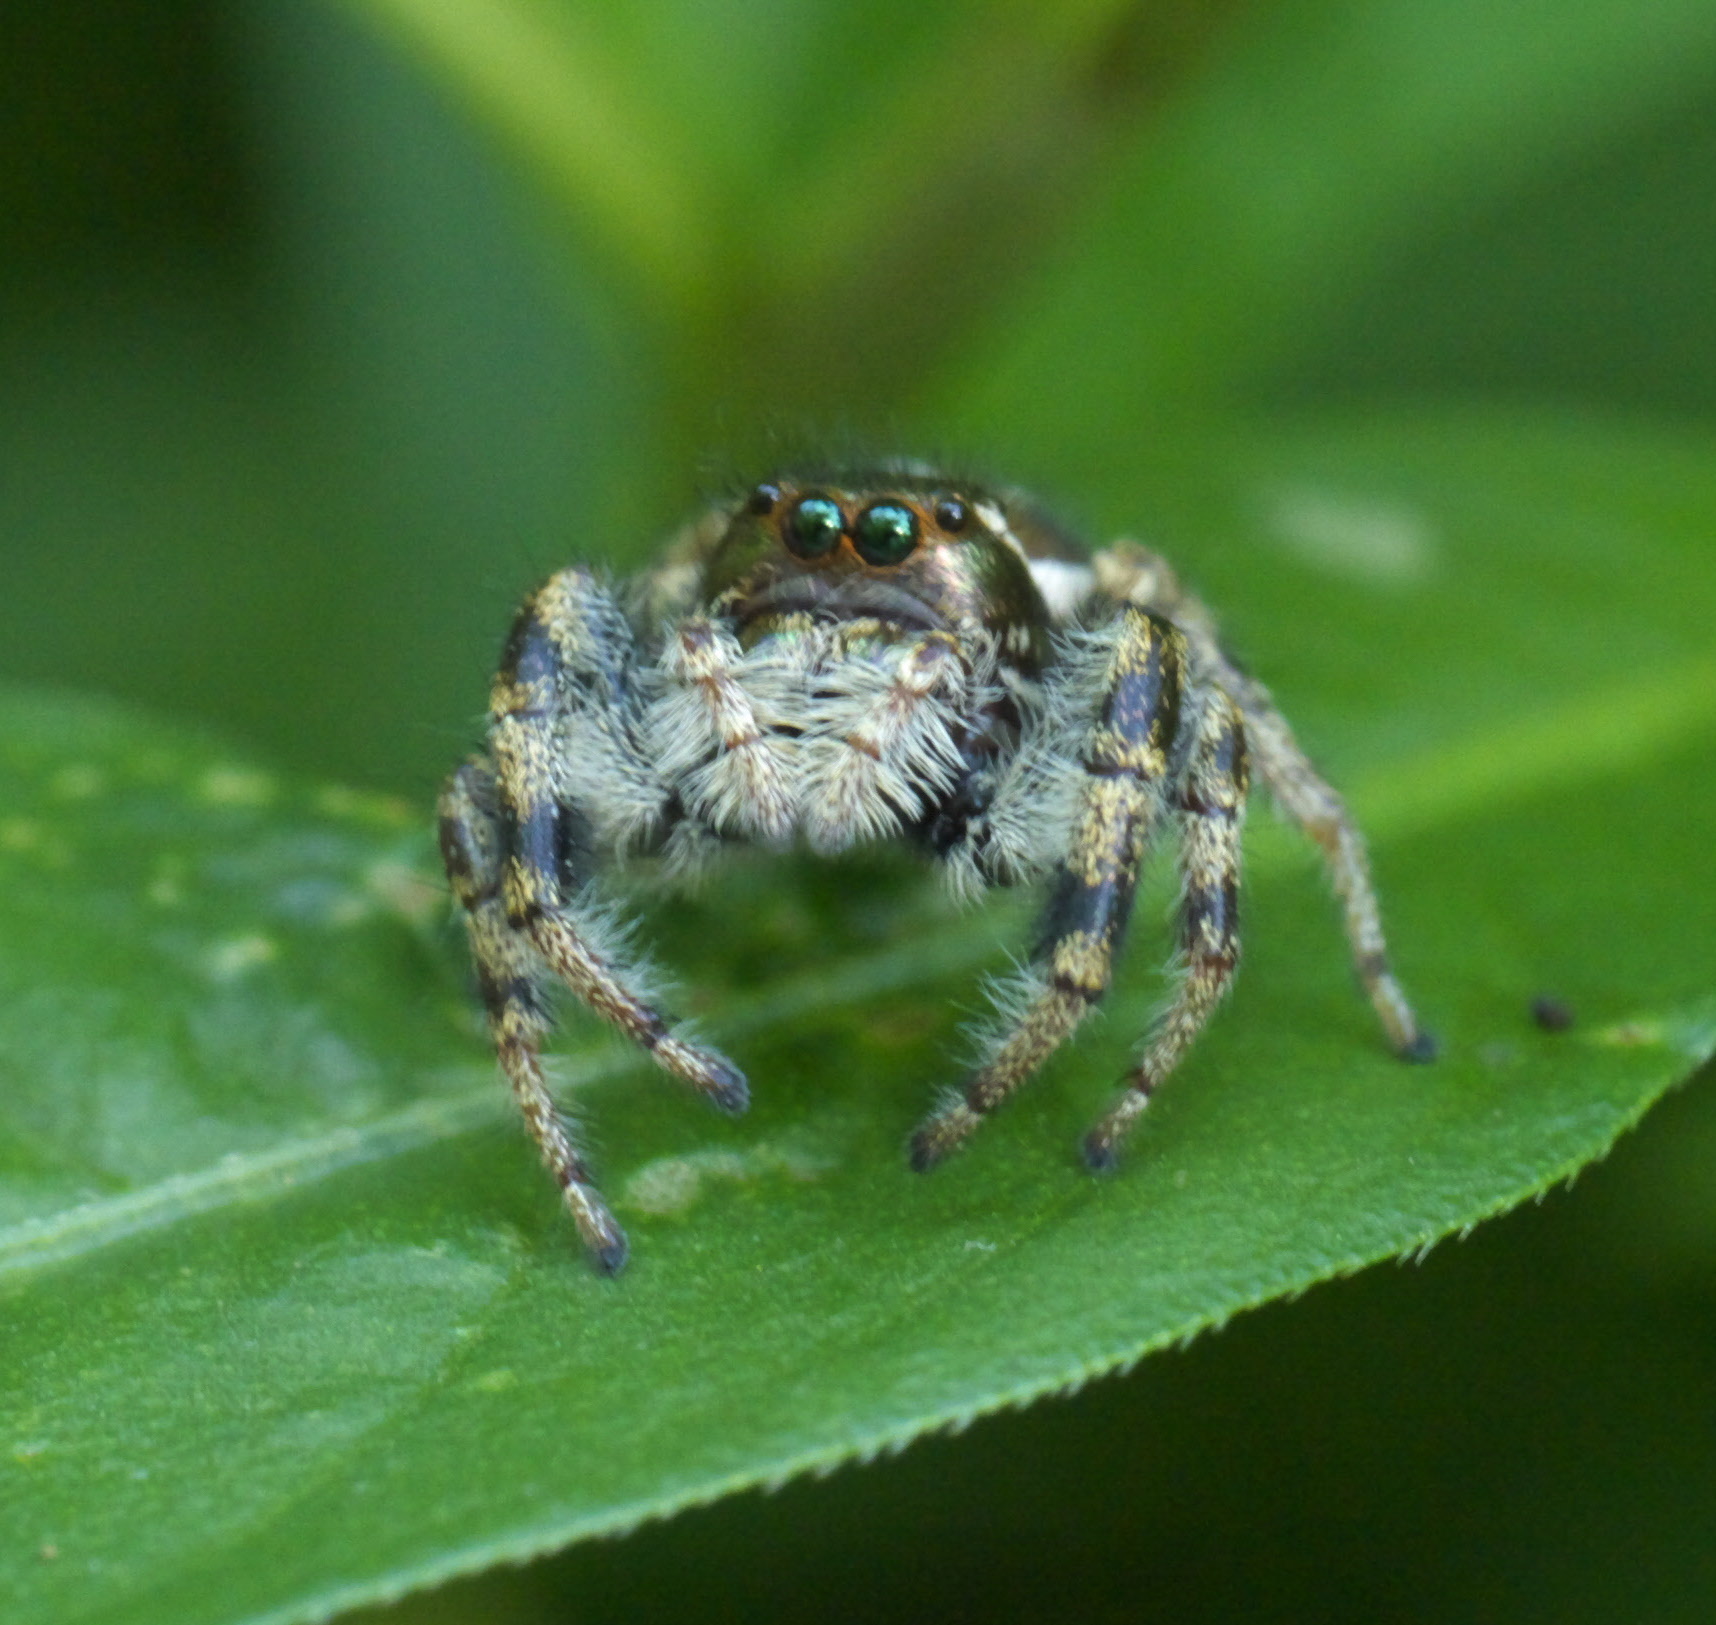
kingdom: Animalia
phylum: Arthropoda
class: Arachnida
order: Araneae
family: Salticidae
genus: Paraphidippus
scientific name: Paraphidippus aurantius
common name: Jumping spiders
